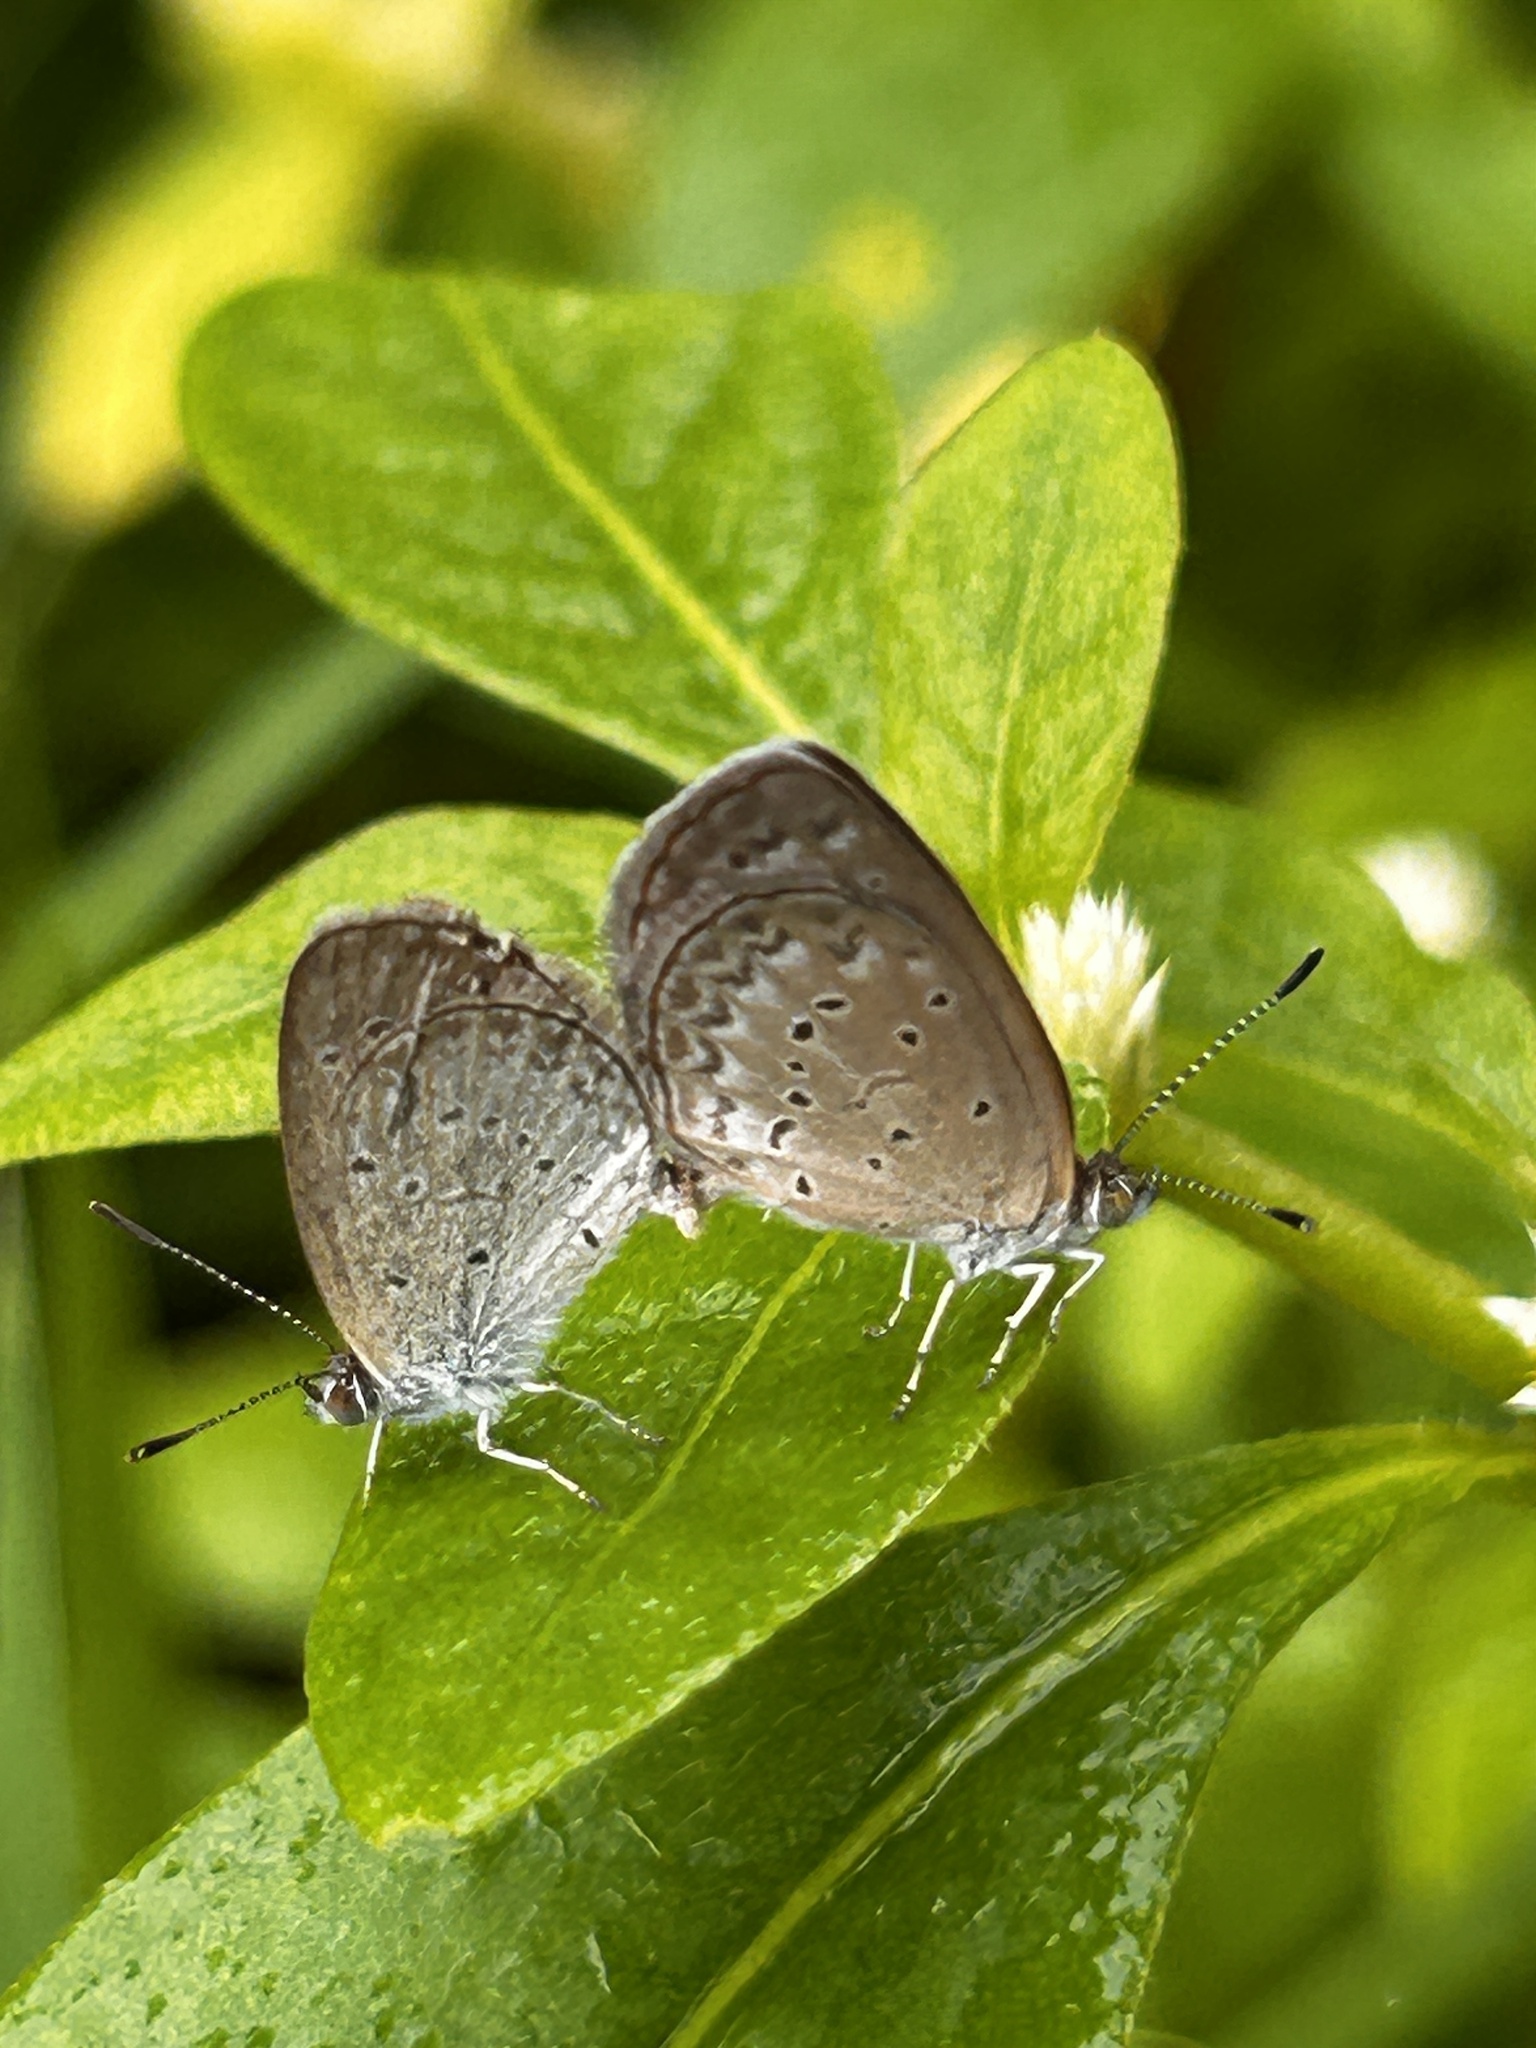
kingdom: Animalia
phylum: Arthropoda
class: Insecta
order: Lepidoptera
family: Lycaenidae
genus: Zizina
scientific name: Zizina otis
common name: Lesser grass blue
